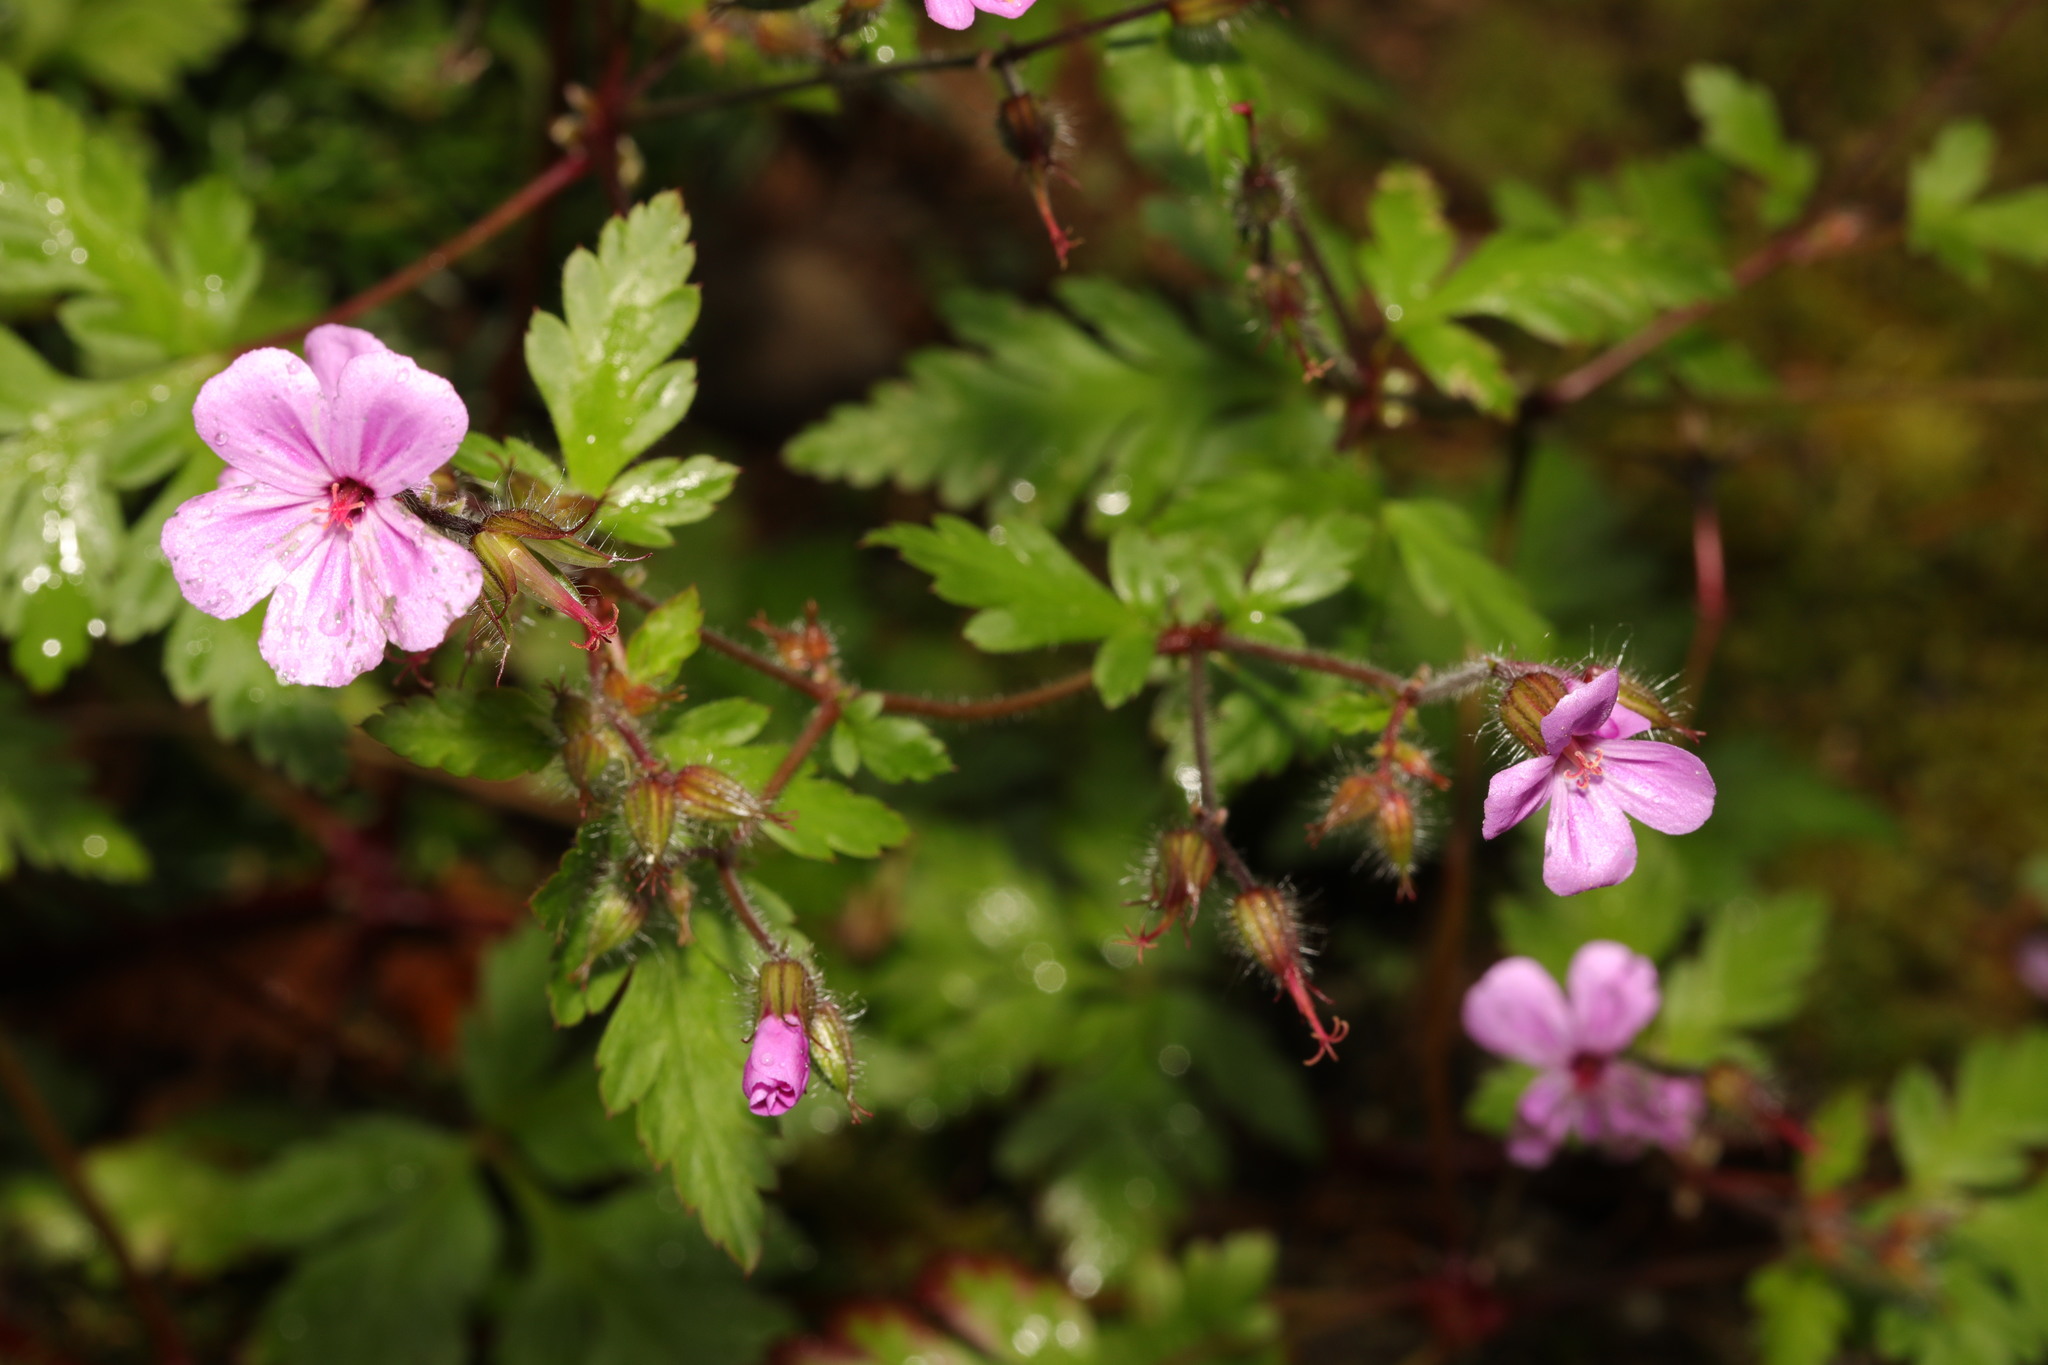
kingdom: Plantae
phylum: Tracheophyta
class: Magnoliopsida
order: Geraniales
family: Geraniaceae
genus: Geranium
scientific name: Geranium robertianum
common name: Herb-robert
